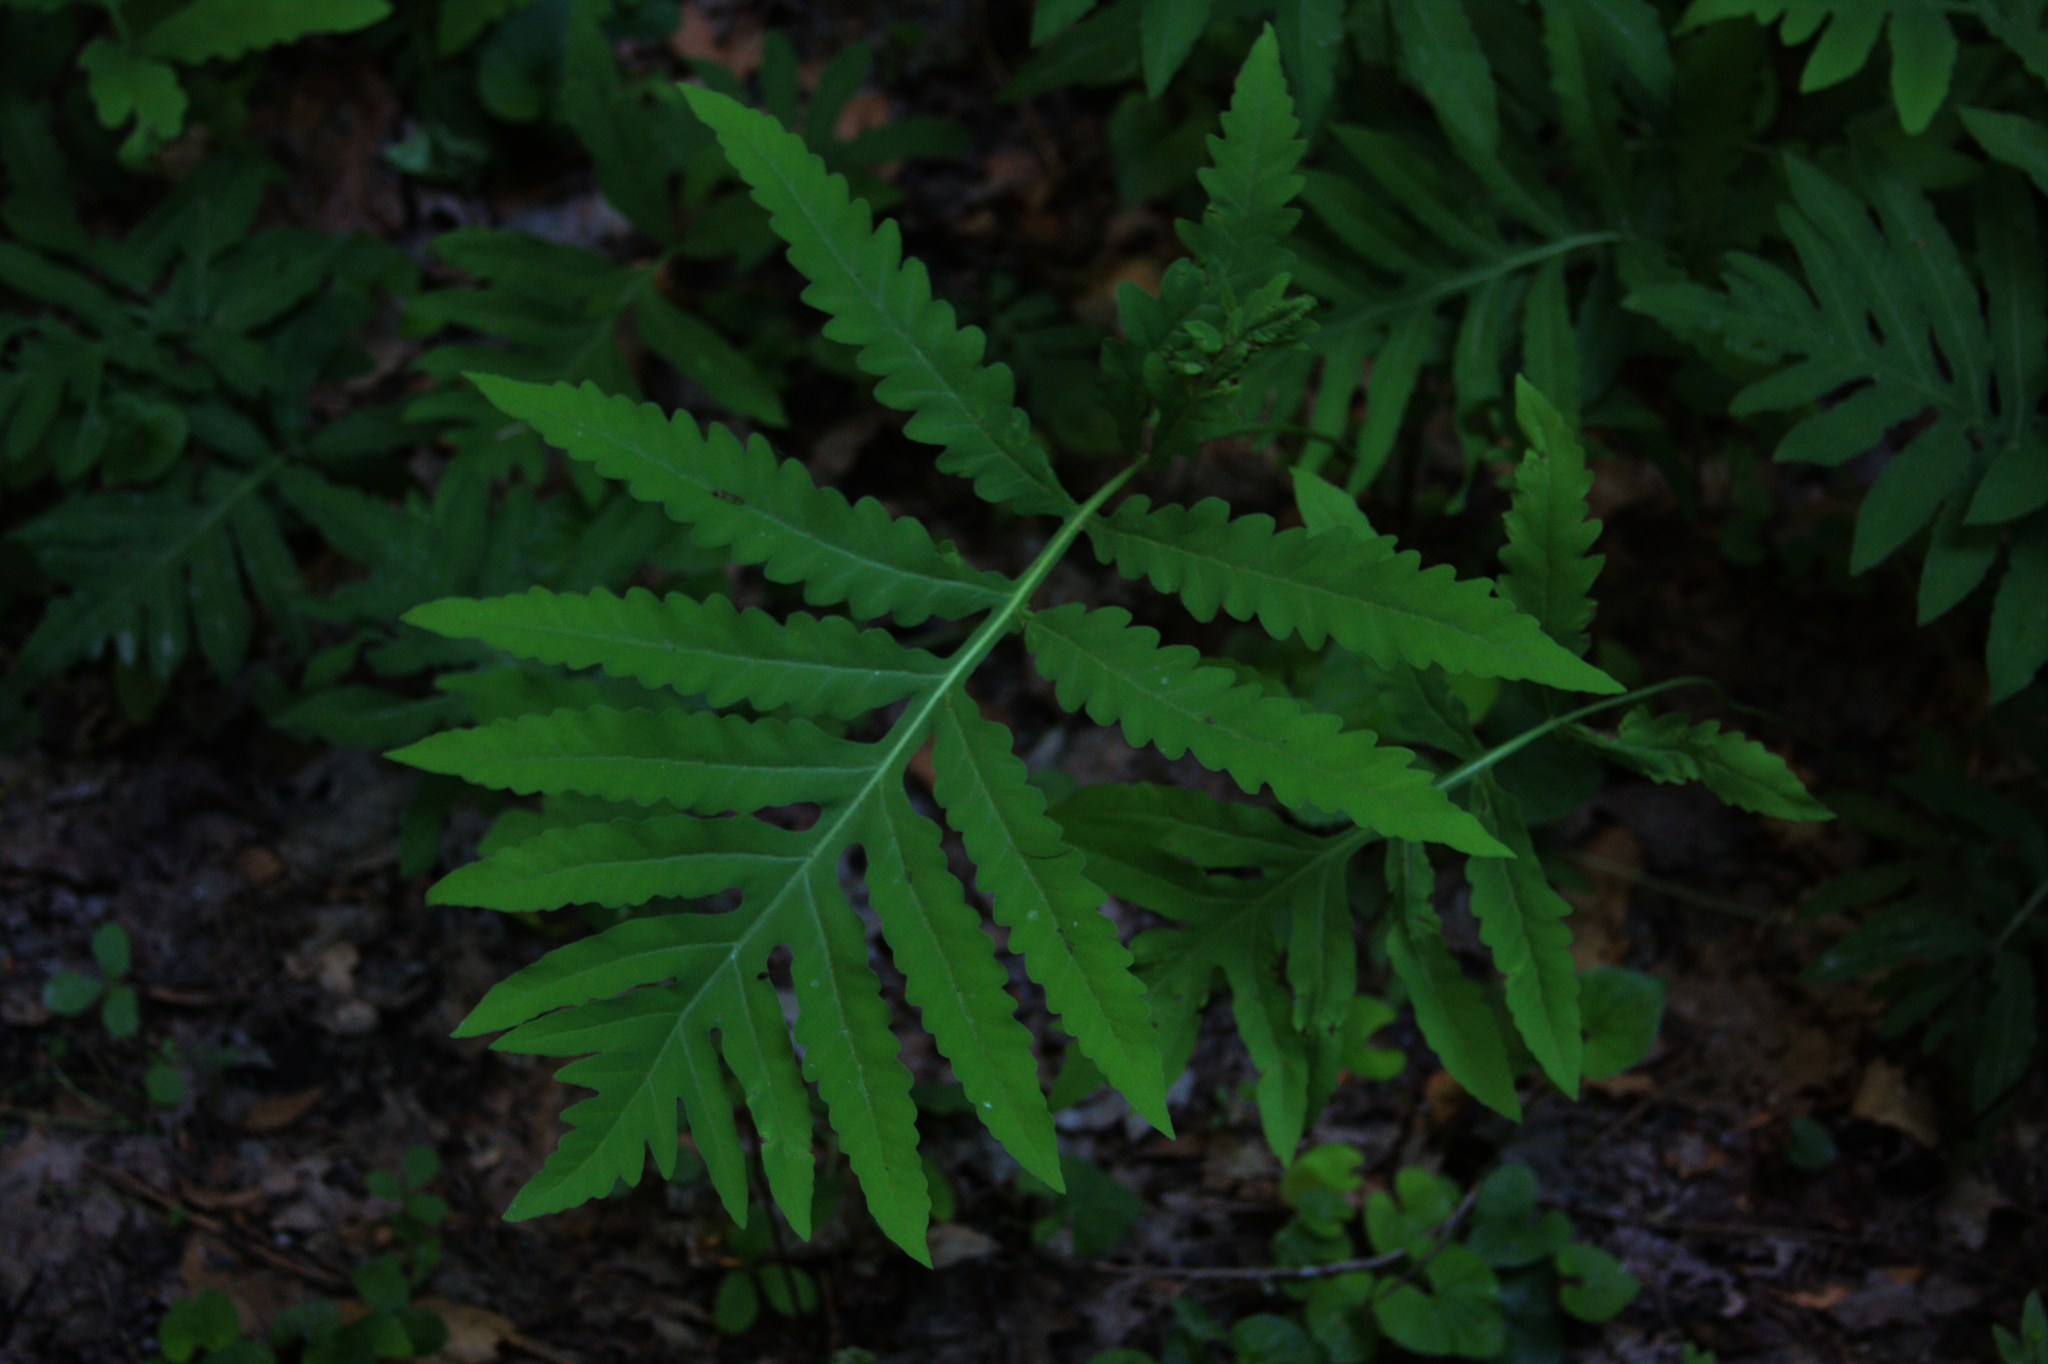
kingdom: Plantae
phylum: Tracheophyta
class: Polypodiopsida
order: Polypodiales
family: Onocleaceae
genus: Onoclea
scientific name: Onoclea sensibilis
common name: Sensitive fern
